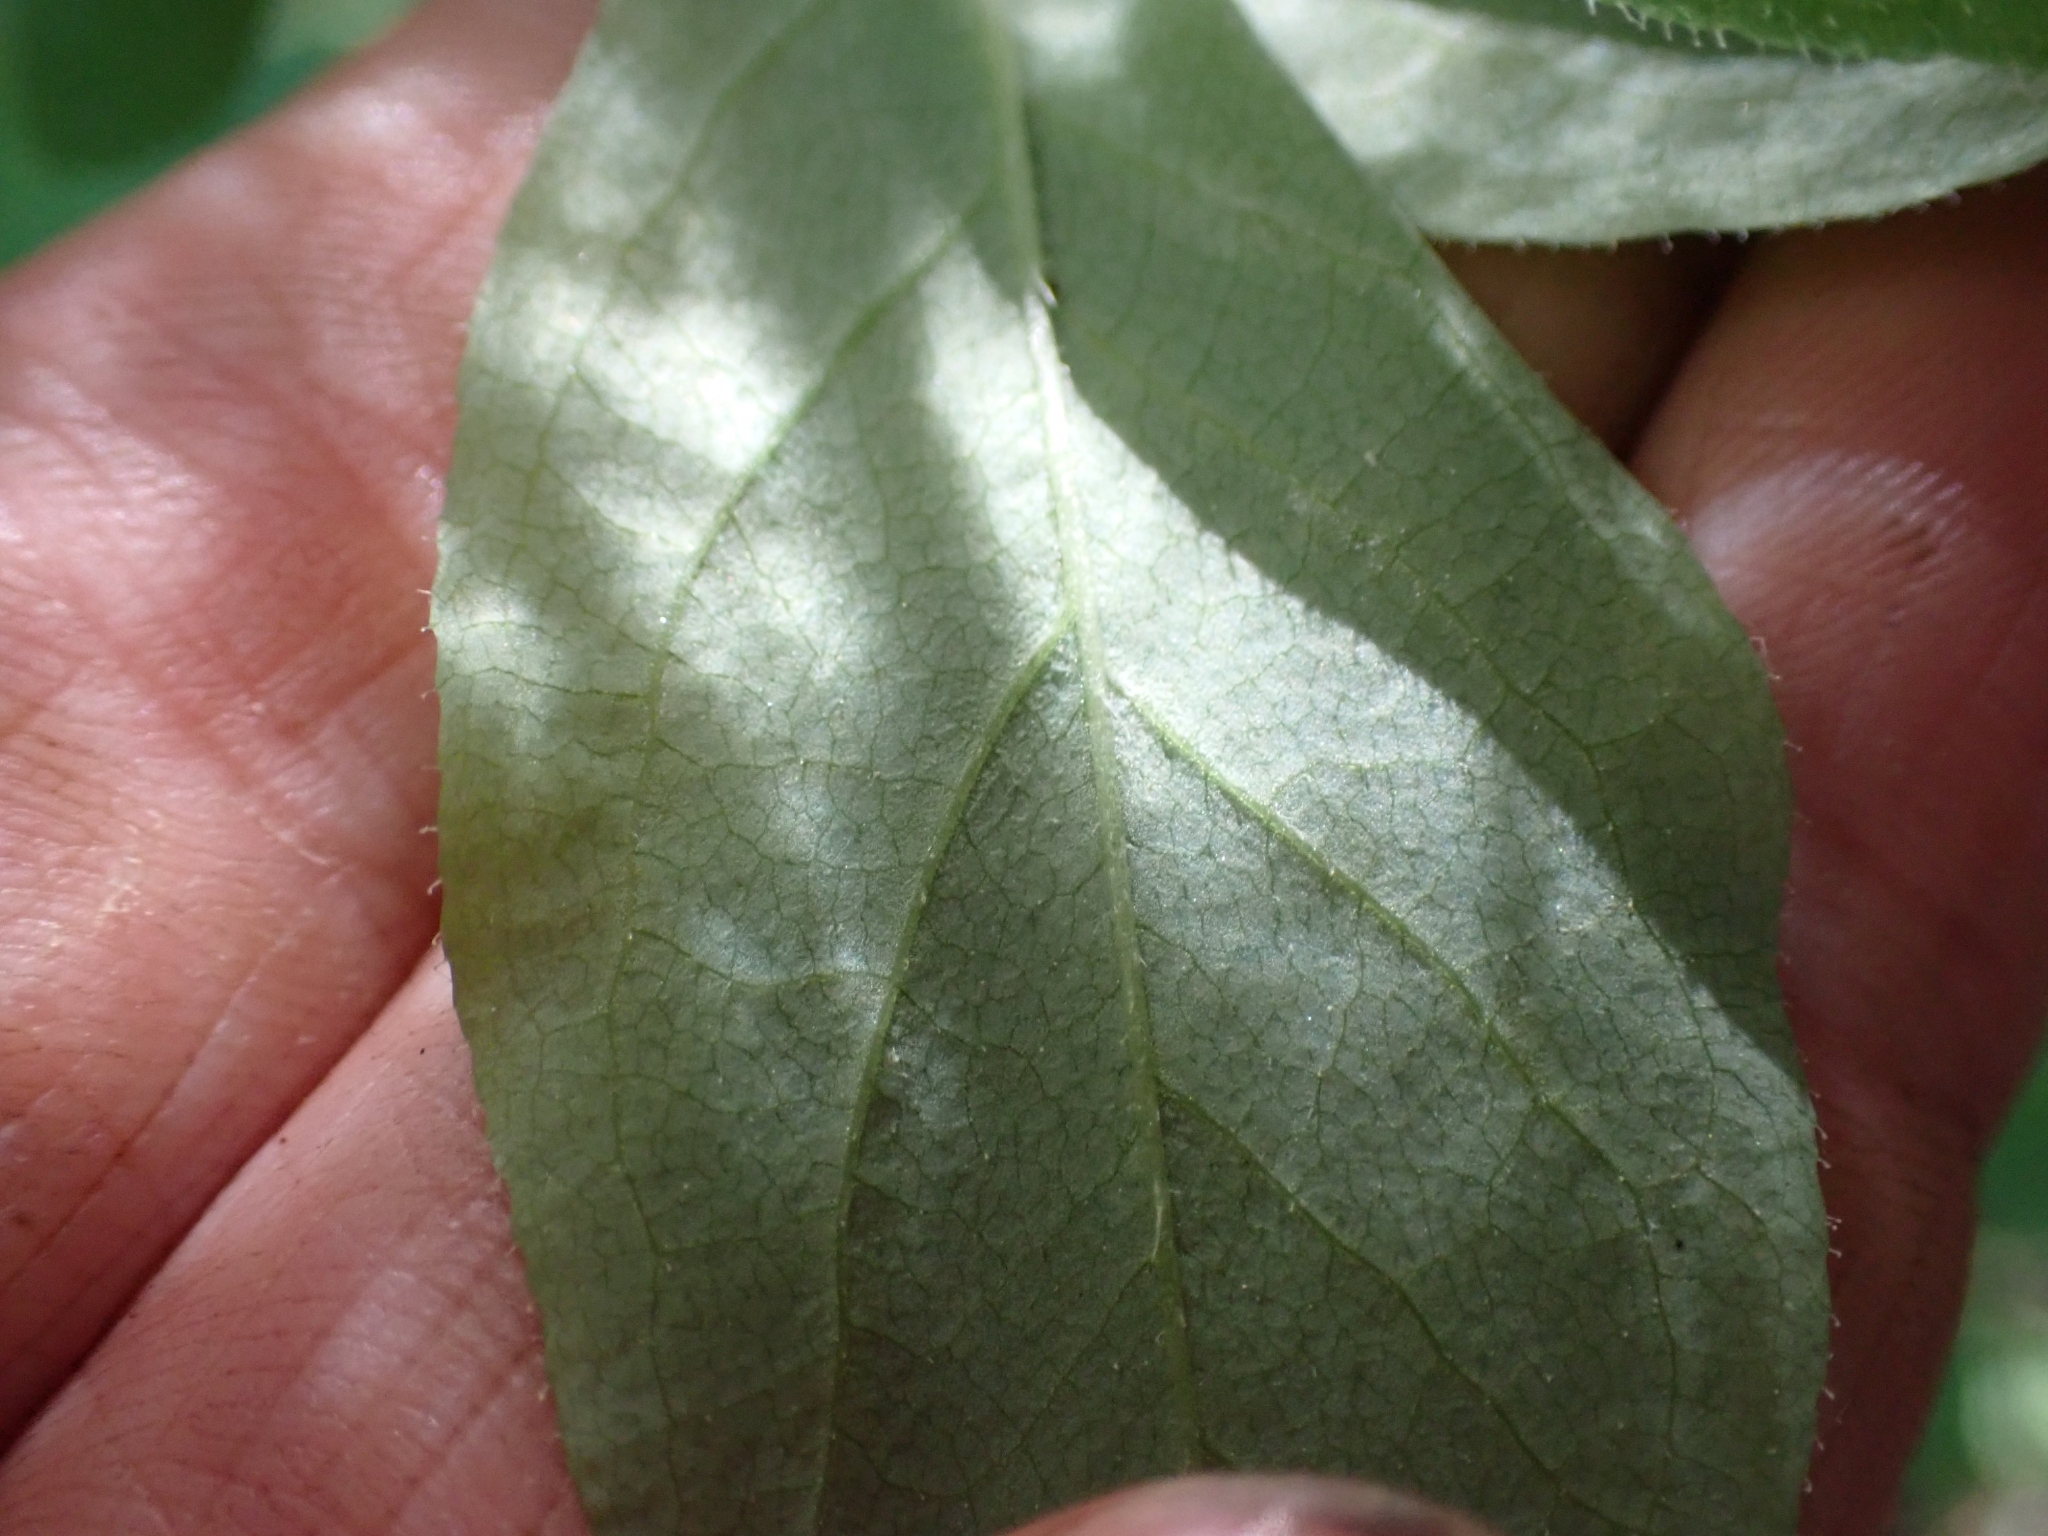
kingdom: Plantae
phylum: Tracheophyta
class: Magnoliopsida
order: Ericales
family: Ericaceae
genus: Rhododendron
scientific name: Rhododendron menziesii
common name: Pacific menziesia
